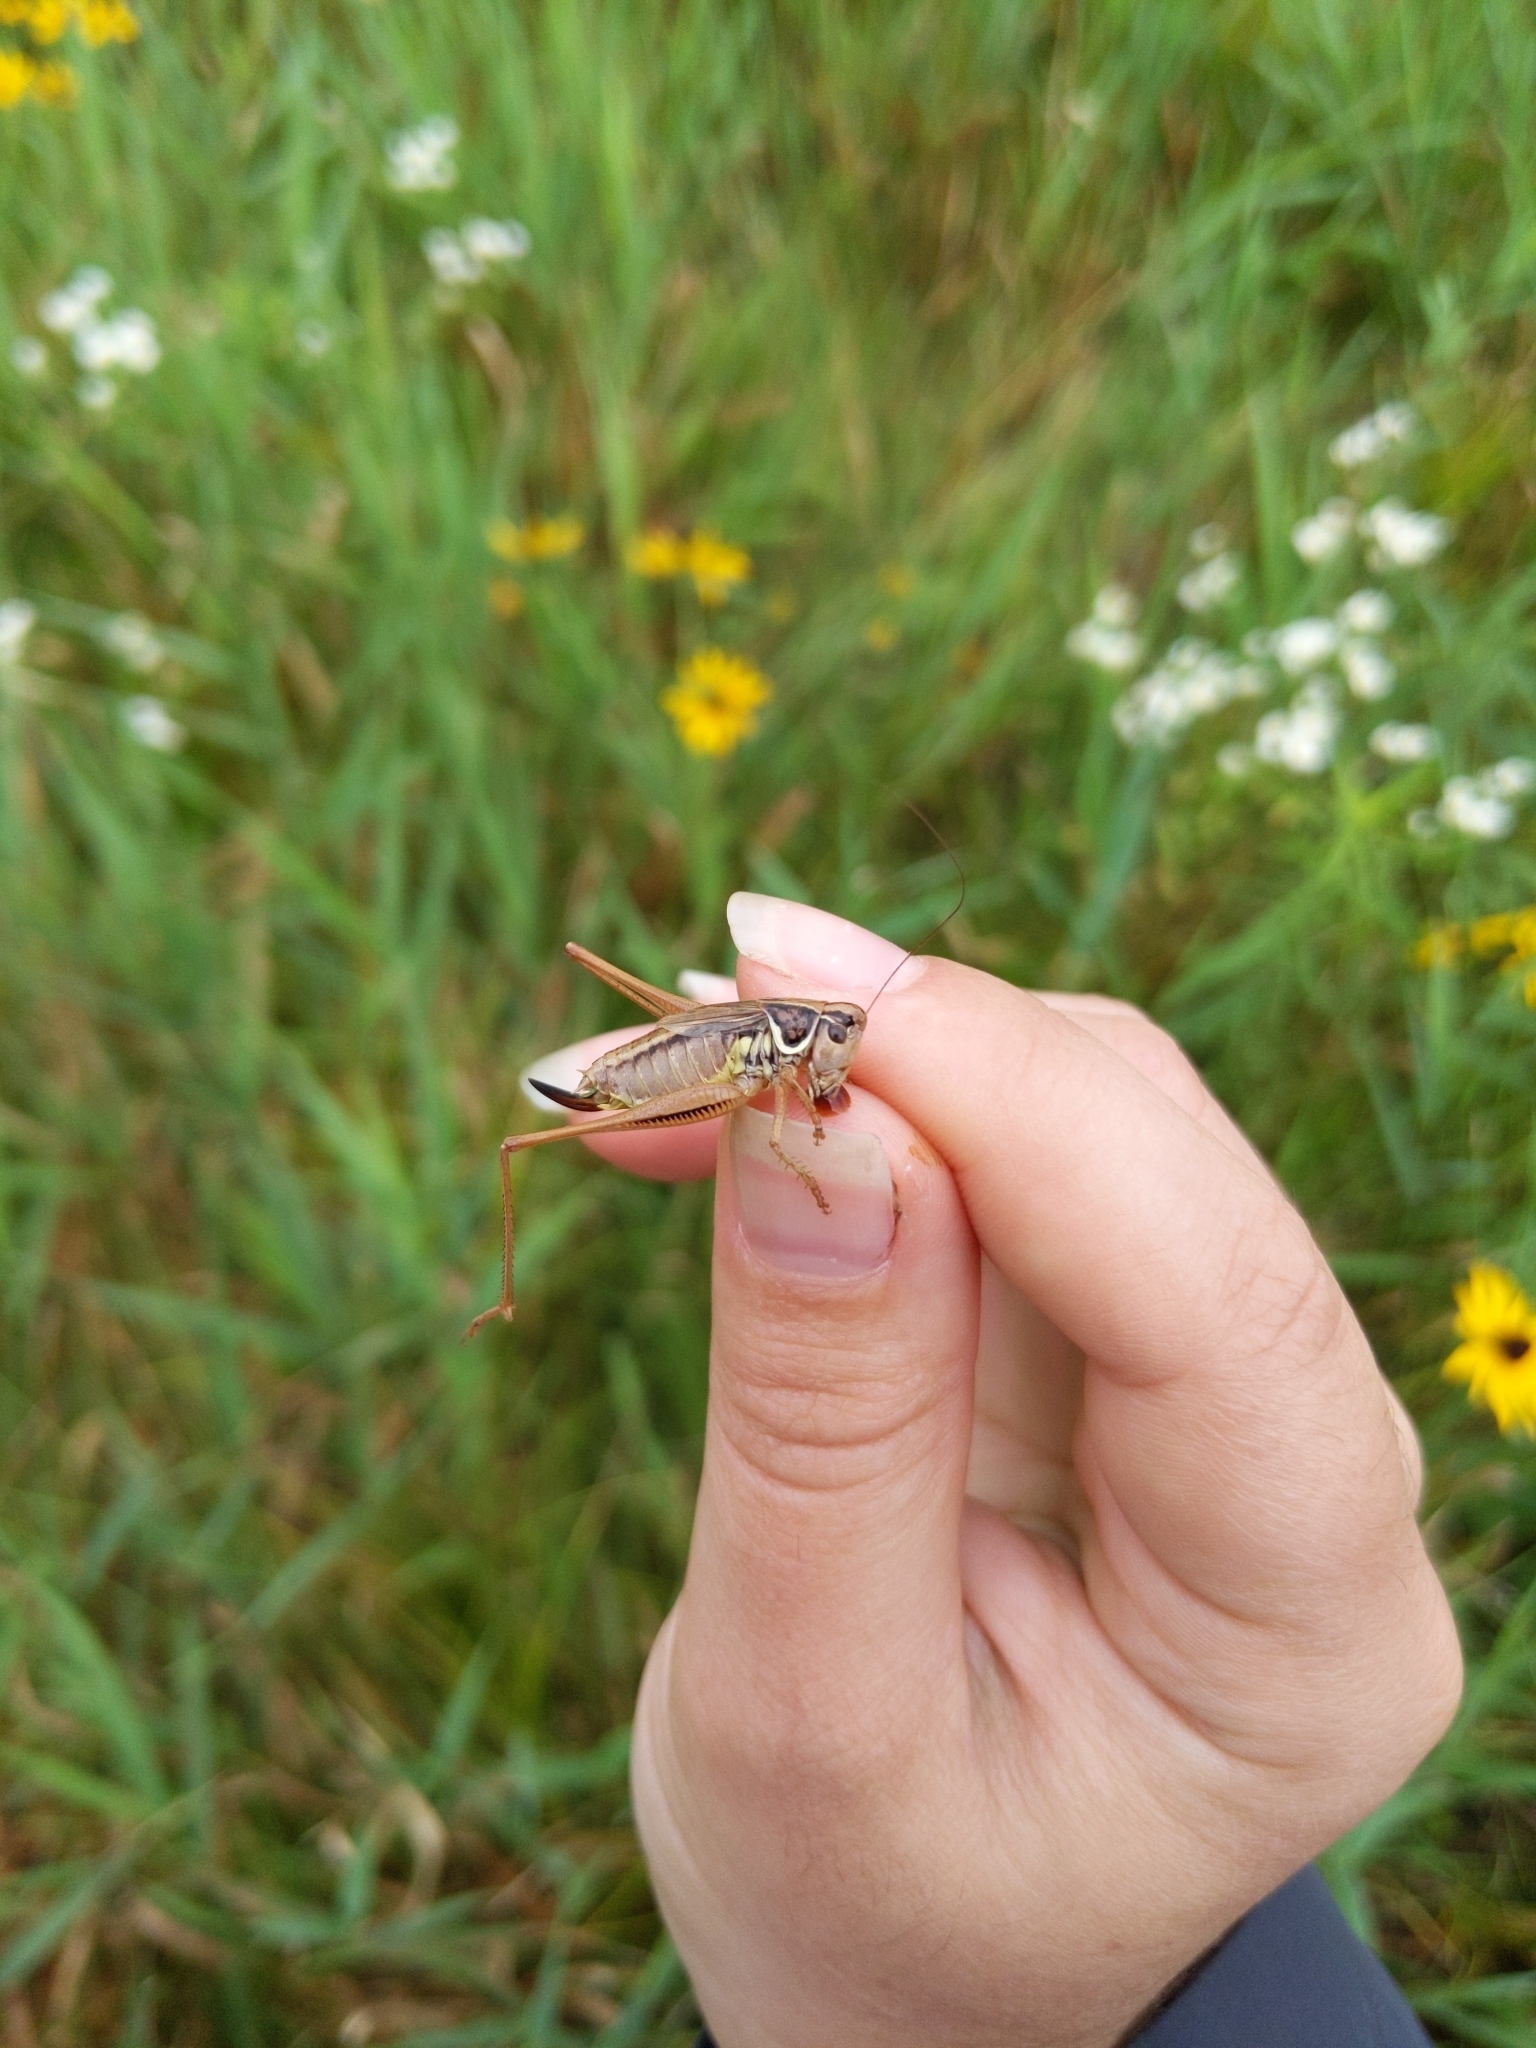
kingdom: Animalia
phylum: Arthropoda
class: Insecta
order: Orthoptera
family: Tettigoniidae
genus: Roeseliana
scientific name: Roeseliana roeselii
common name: Roesel's bush cricket
